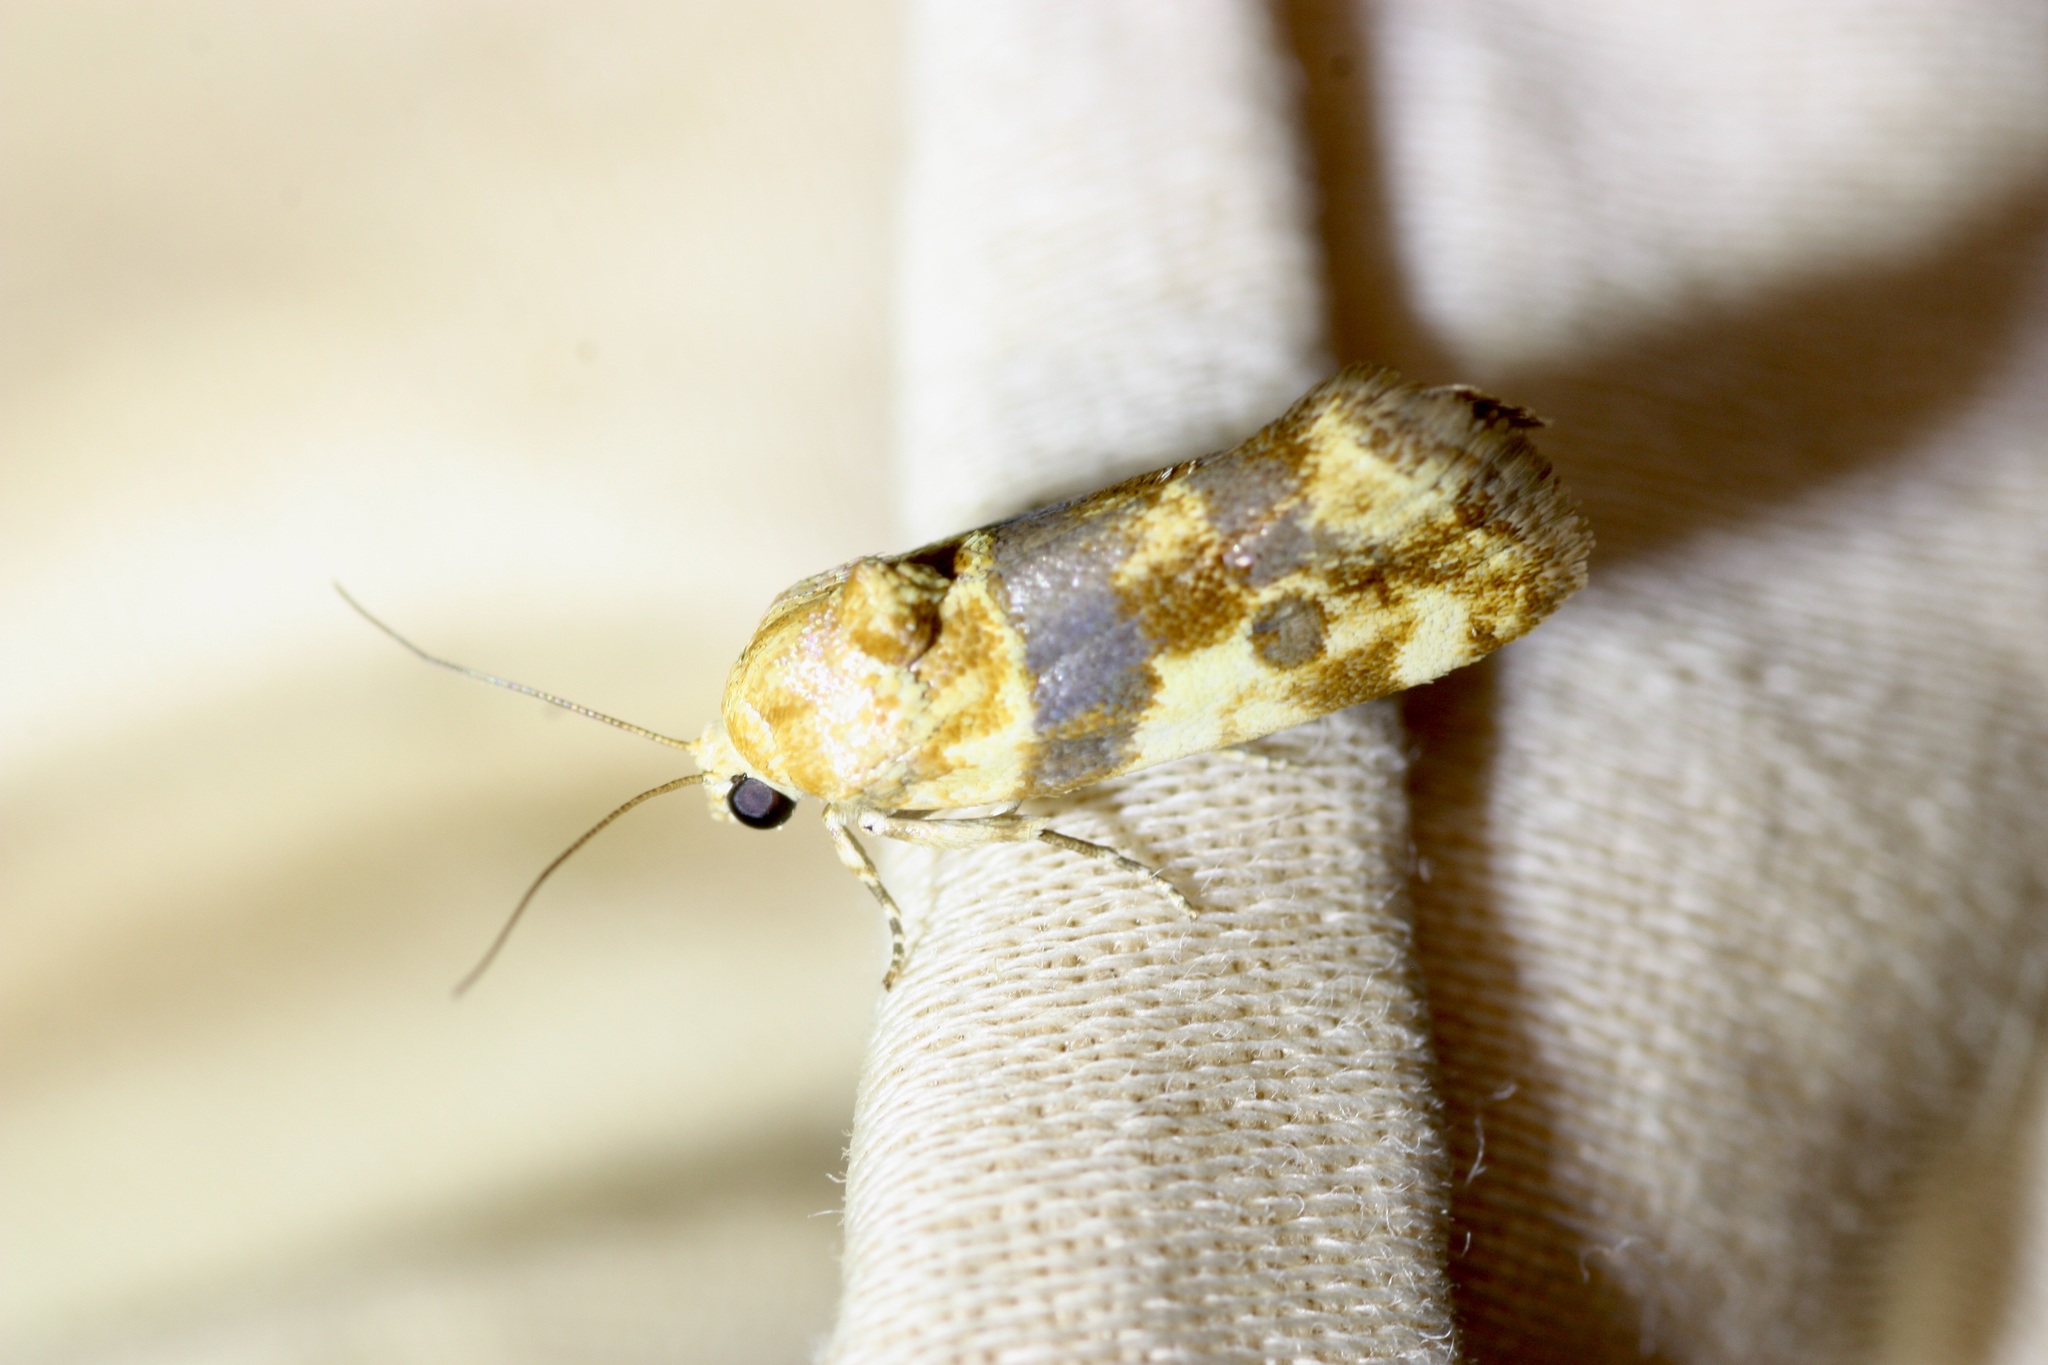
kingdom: Animalia
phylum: Arthropoda
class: Insecta
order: Lepidoptera
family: Noctuidae
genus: Acontia
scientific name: Acontia obatra
